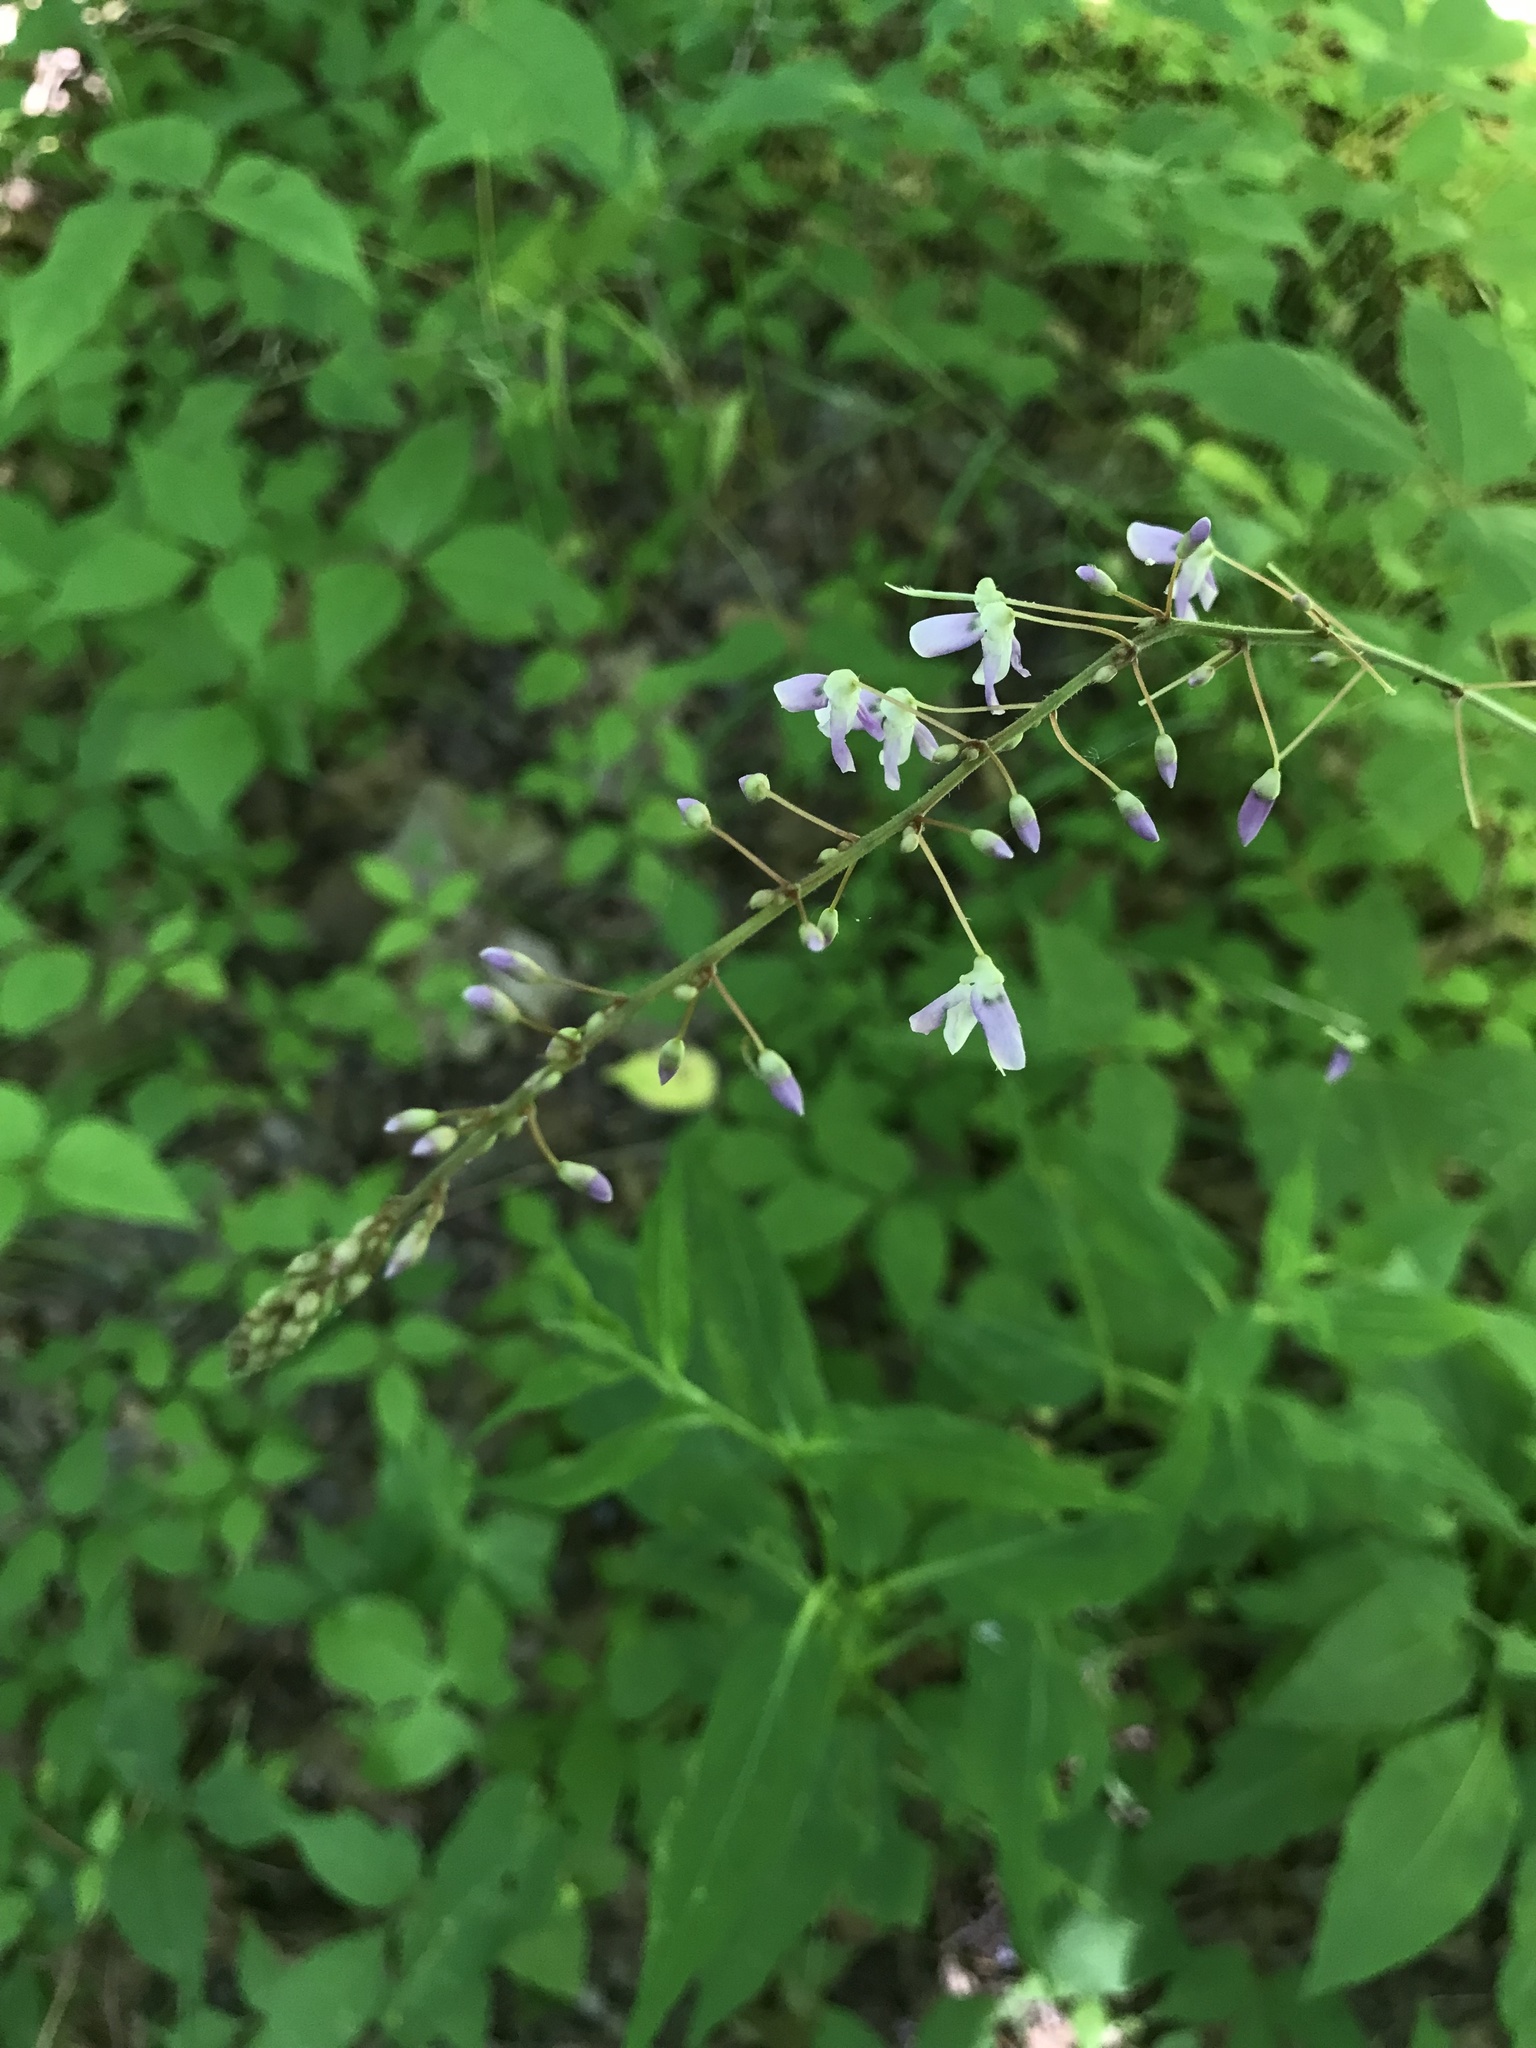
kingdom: Plantae
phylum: Tracheophyta
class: Magnoliopsida
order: Fabales
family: Fabaceae
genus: Hylodesmum
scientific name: Hylodesmum nudiflorum
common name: Bare-stemmed tick-trefoil
